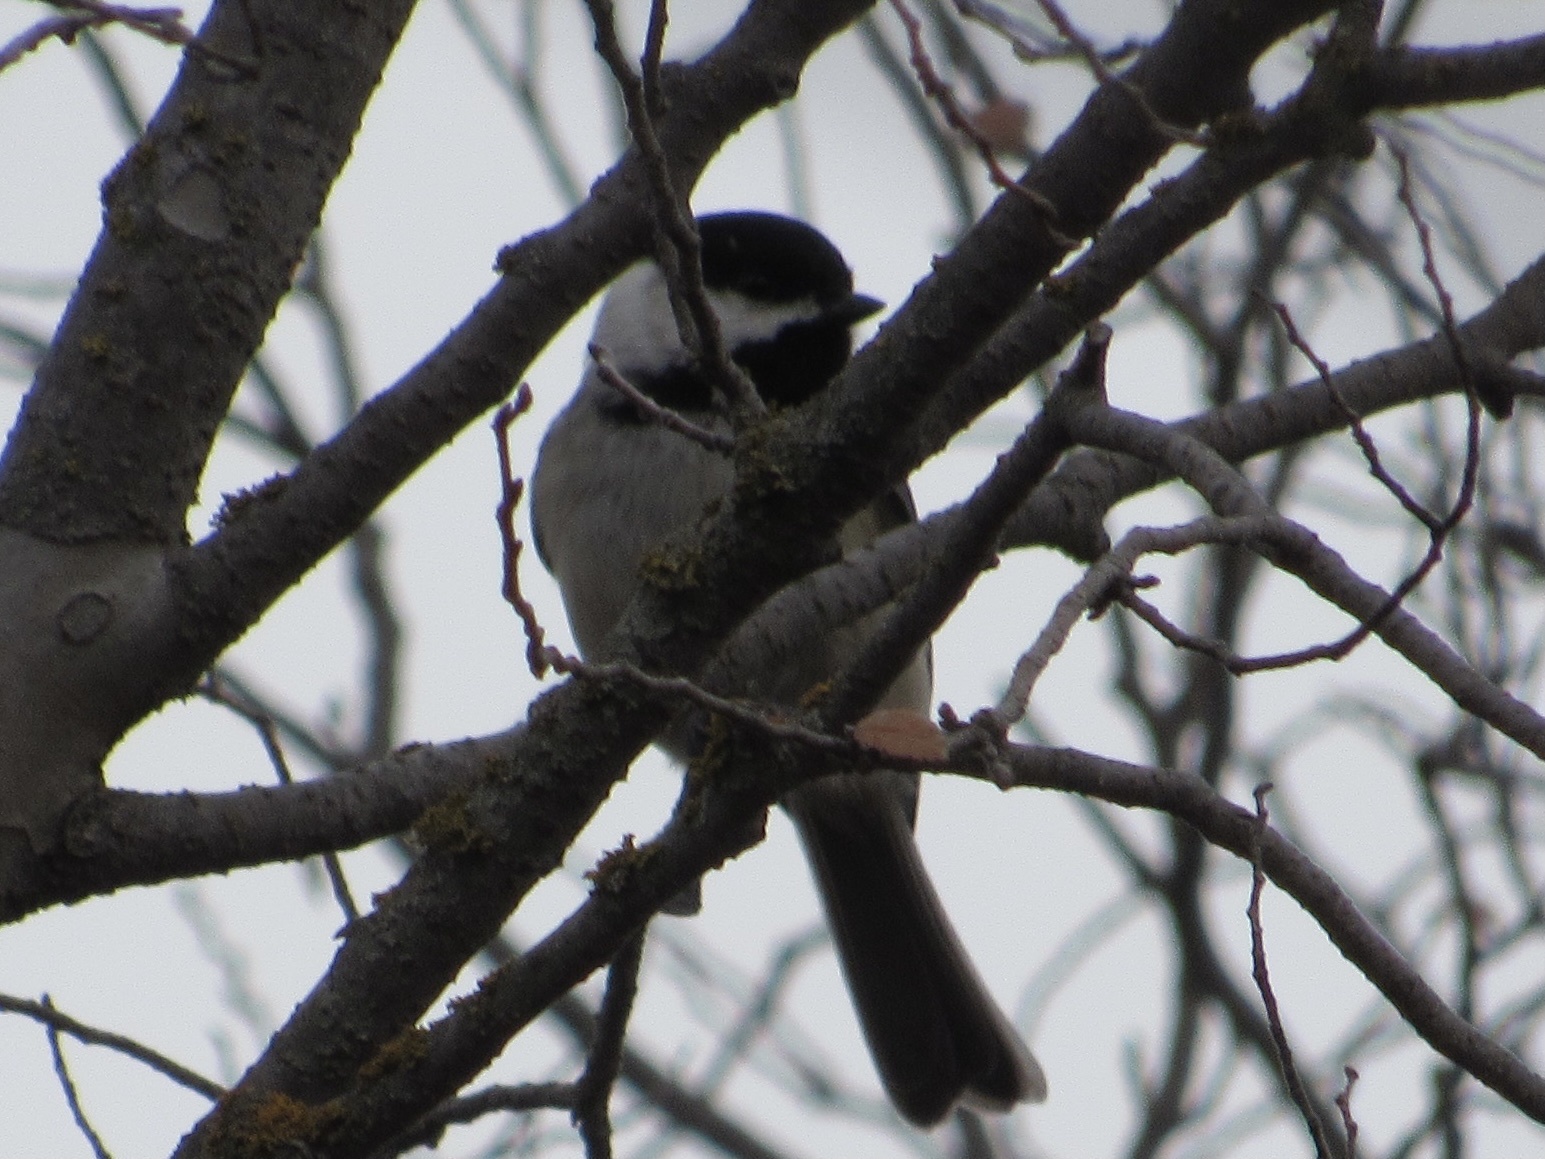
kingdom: Animalia
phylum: Chordata
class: Aves
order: Passeriformes
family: Paridae
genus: Poecile
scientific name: Poecile carolinensis
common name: Carolina chickadee
